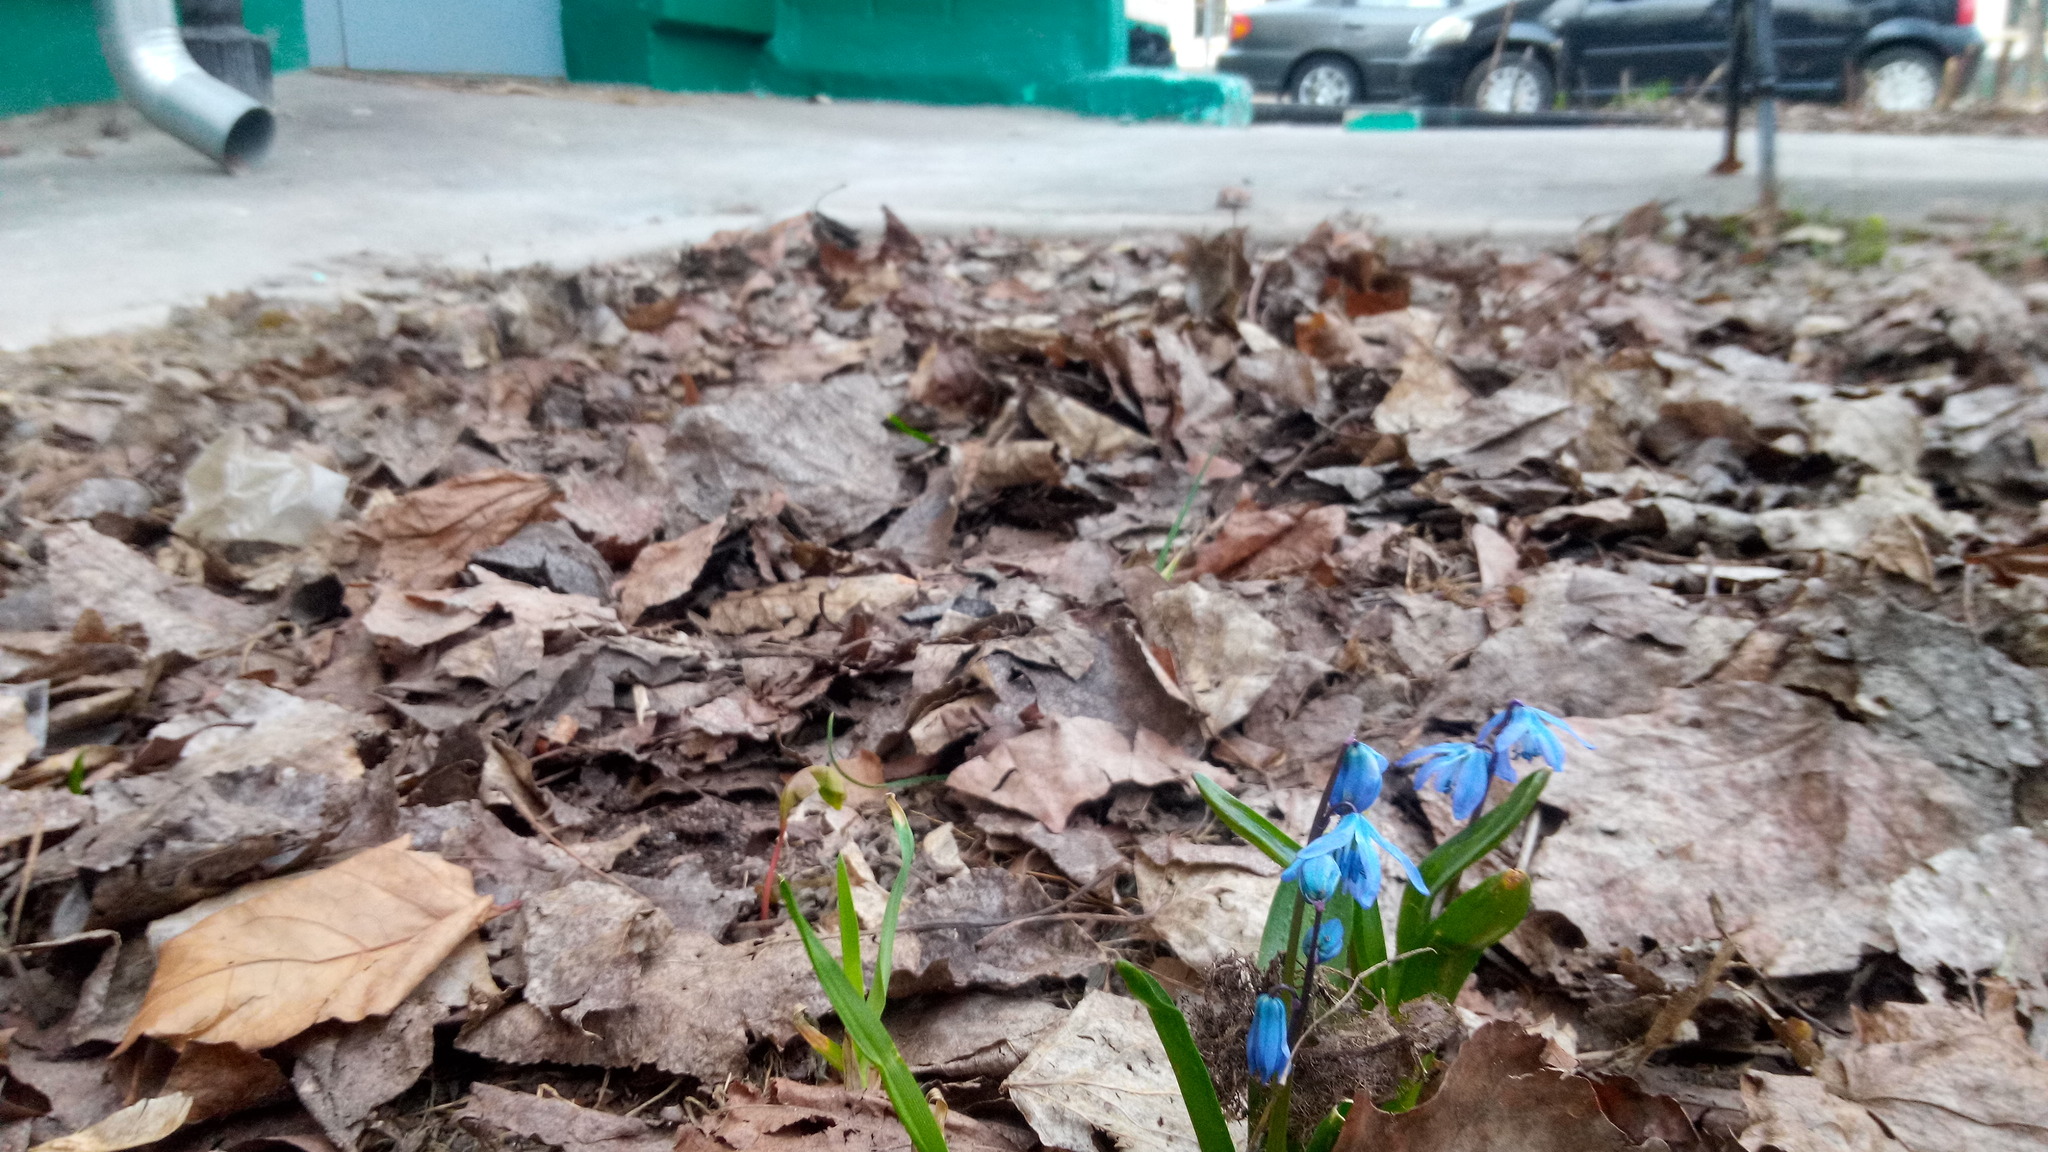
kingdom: Plantae
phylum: Tracheophyta
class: Liliopsida
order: Asparagales
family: Asparagaceae
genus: Scilla
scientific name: Scilla siberica
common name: Siberian squill
